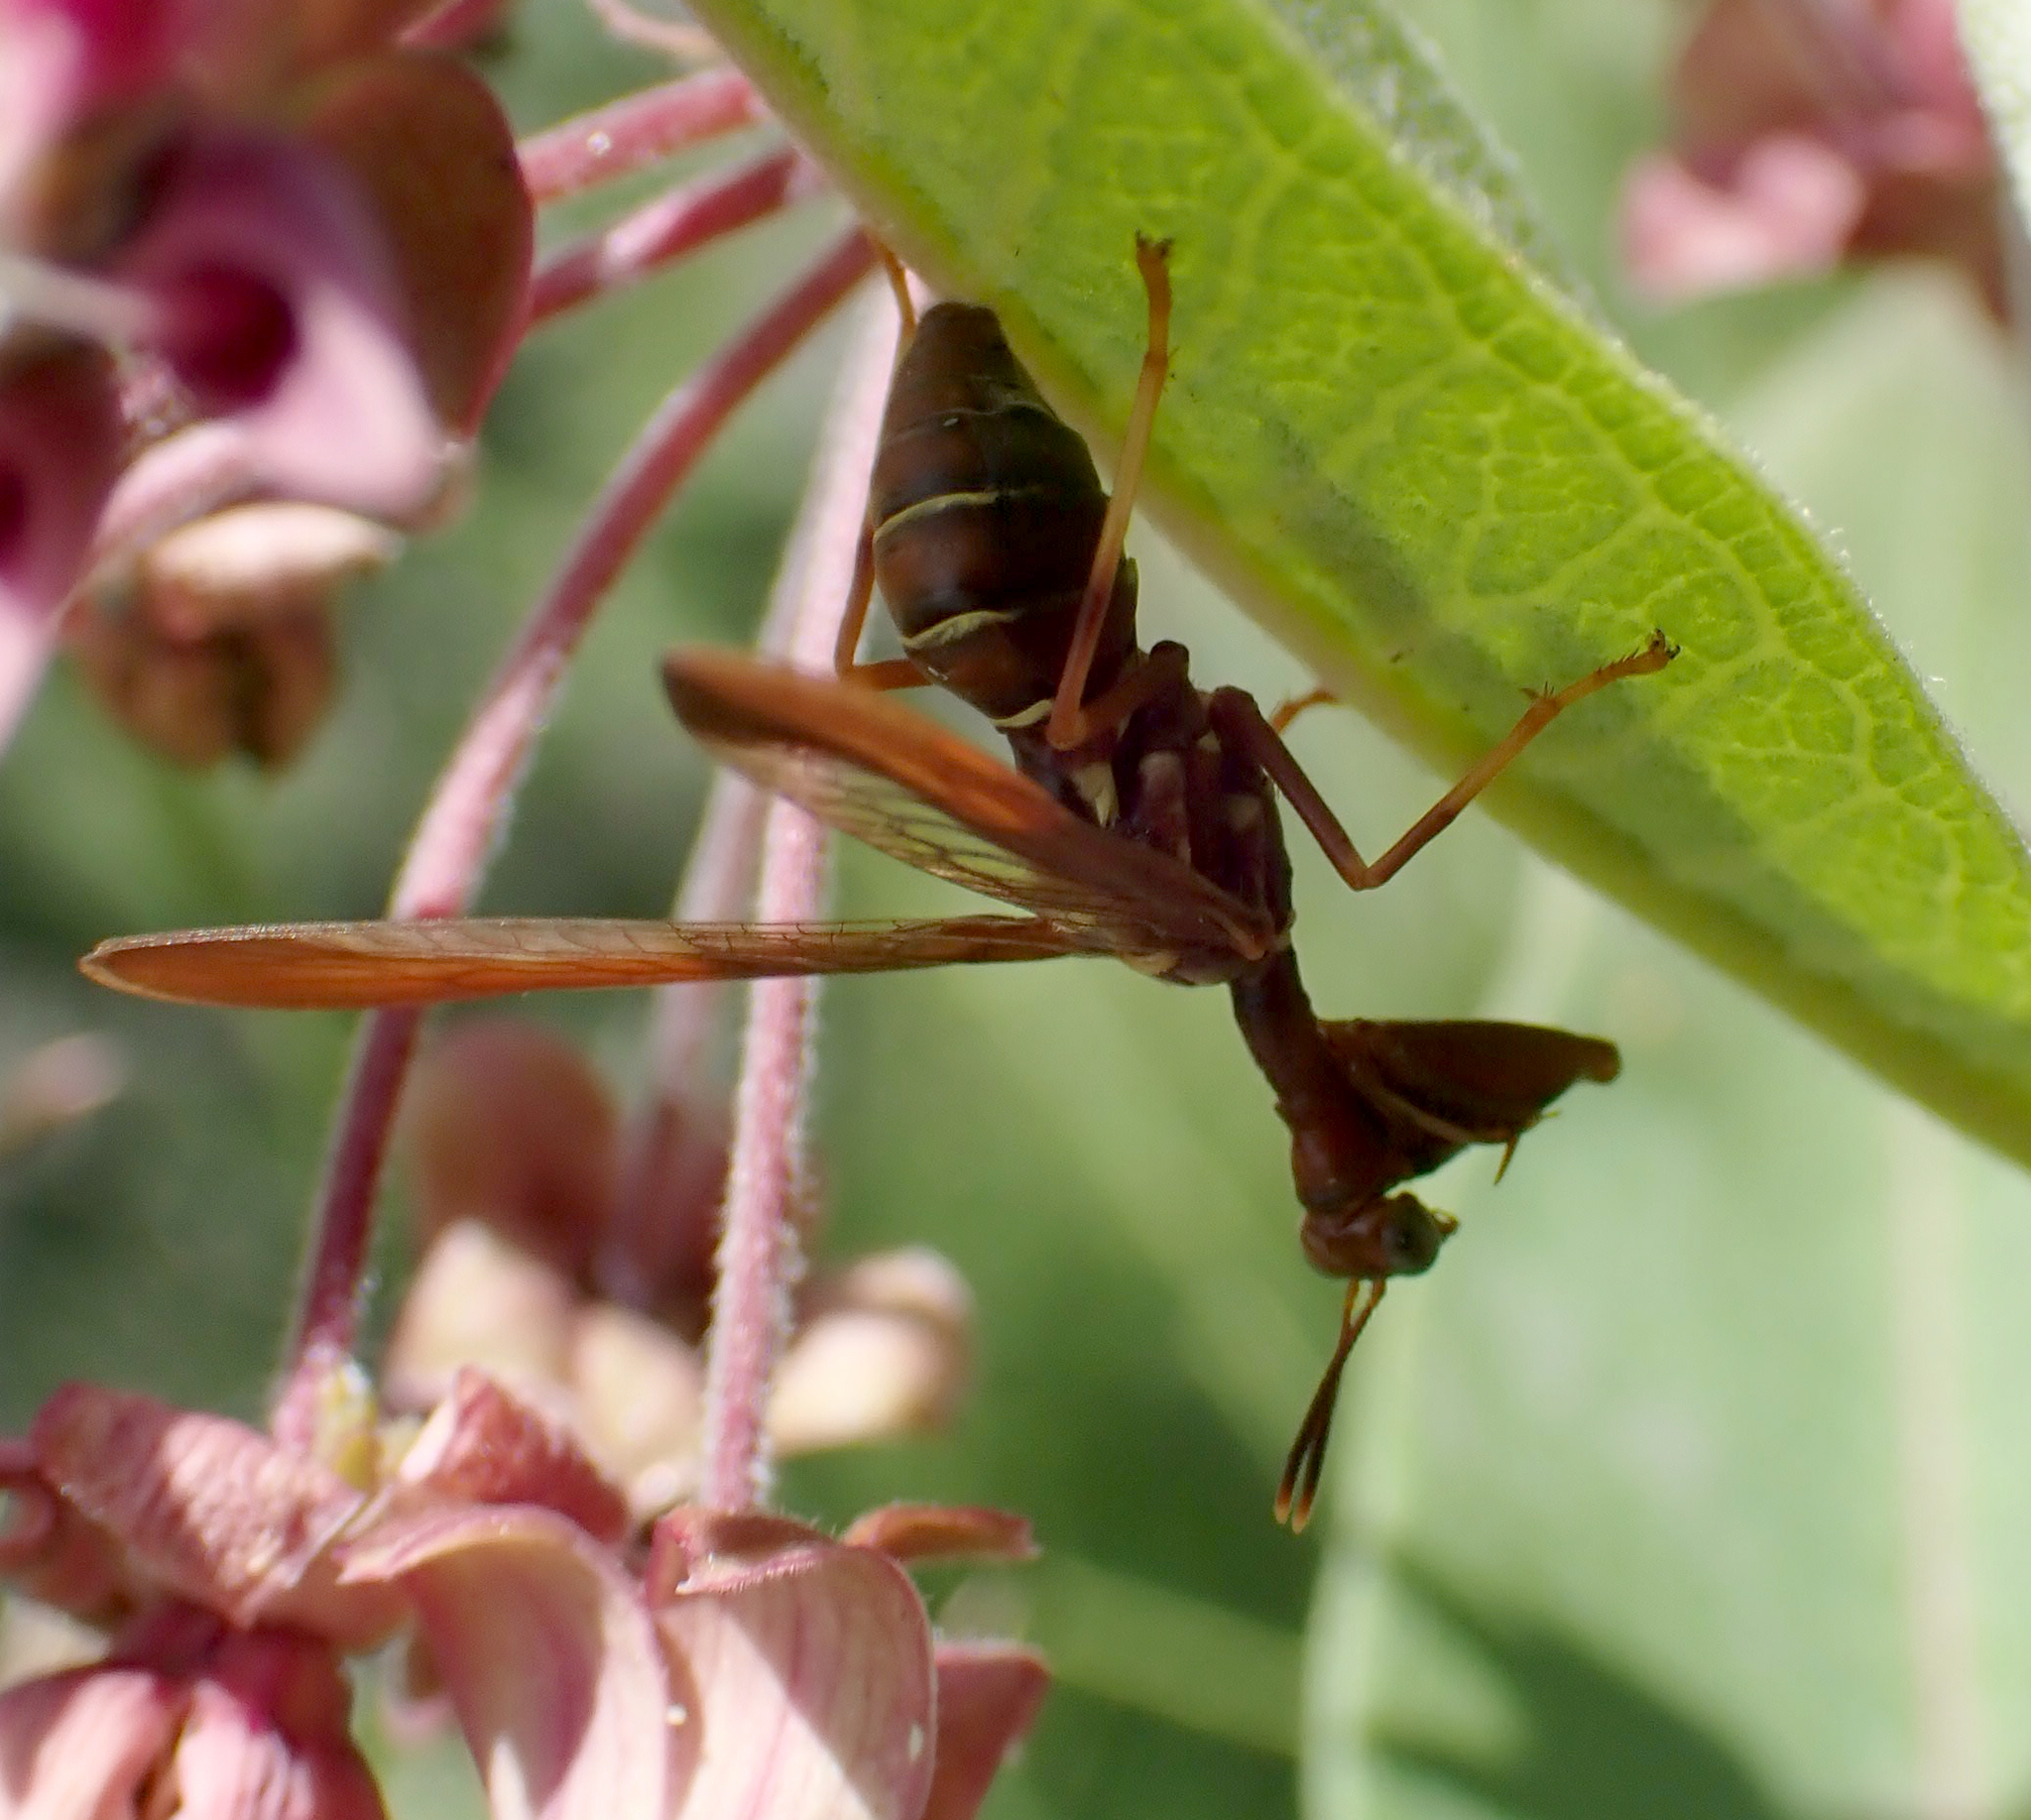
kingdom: Animalia
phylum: Arthropoda
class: Insecta
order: Neuroptera
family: Mantispidae
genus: Climaciella
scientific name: Climaciella brunnea
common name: Brown wasp mantidfly
